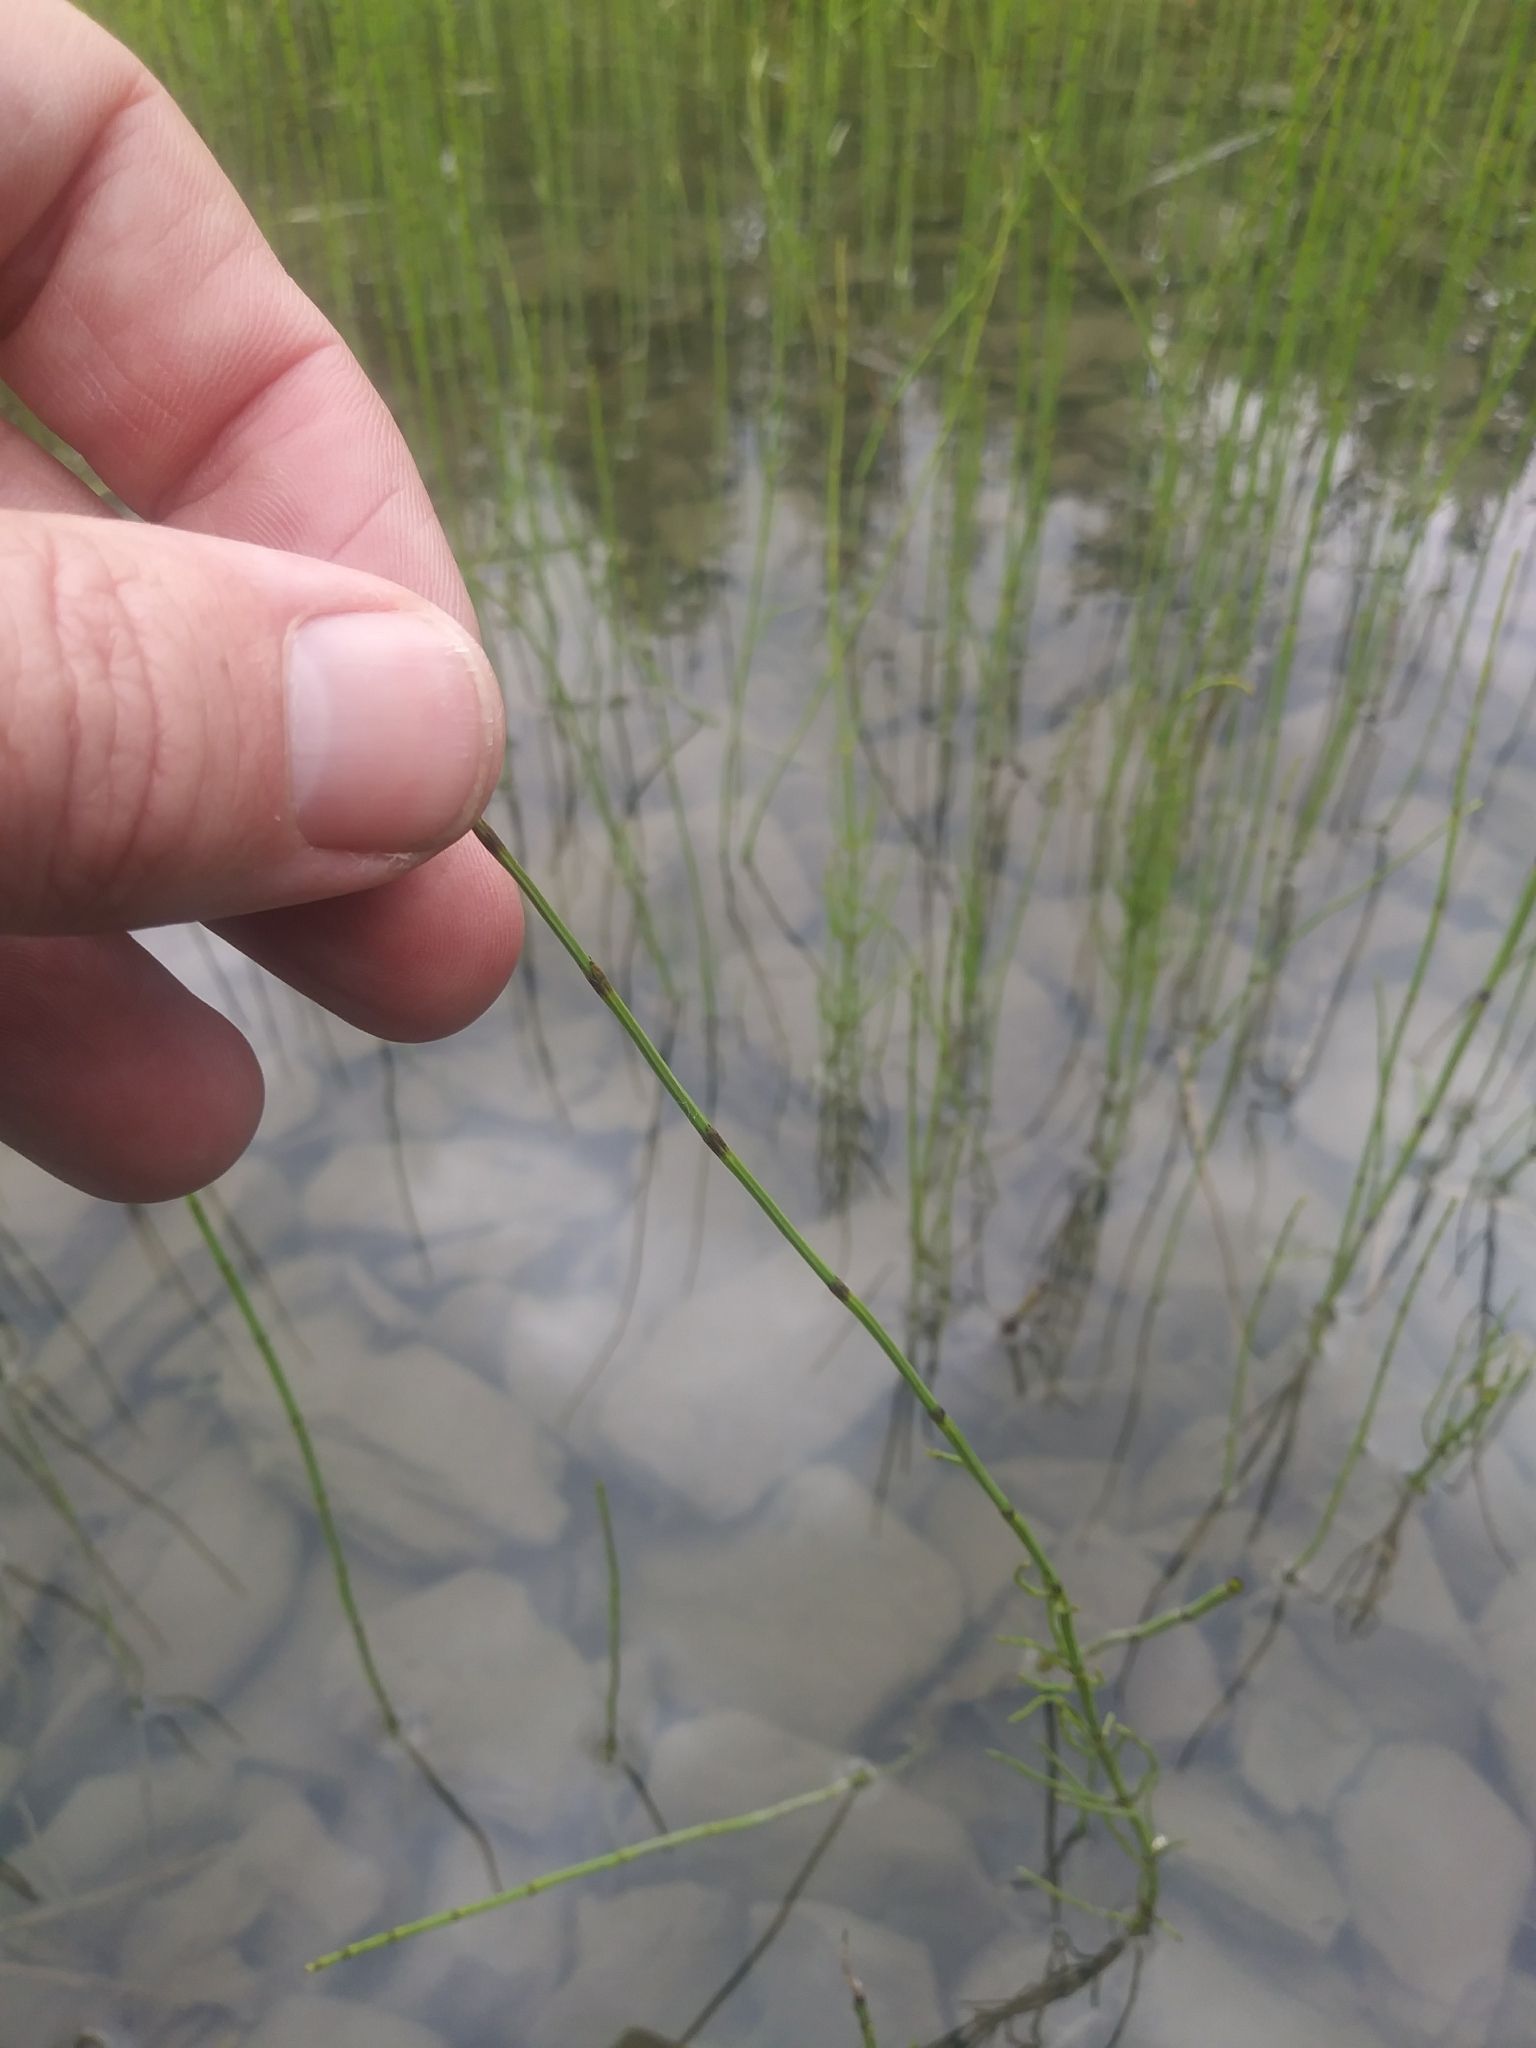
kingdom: Plantae
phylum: Tracheophyta
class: Polypodiopsida
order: Equisetales
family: Equisetaceae
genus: Equisetum
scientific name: Equisetum fluviatile
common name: Water horsetail
